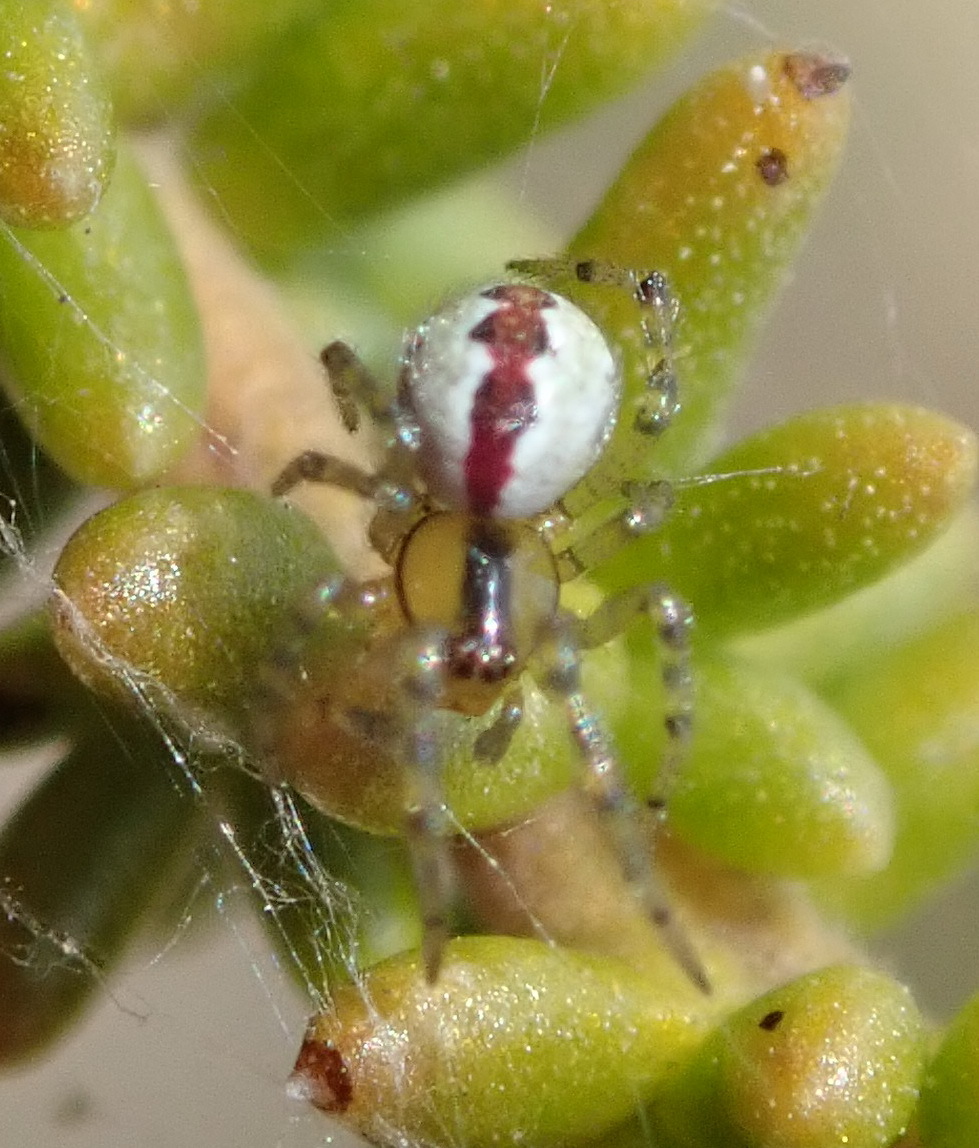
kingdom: Animalia
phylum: Arthropoda
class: Arachnida
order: Araneae
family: Theridiidae
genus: Anelosimus
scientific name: Anelosimus nelsoni
